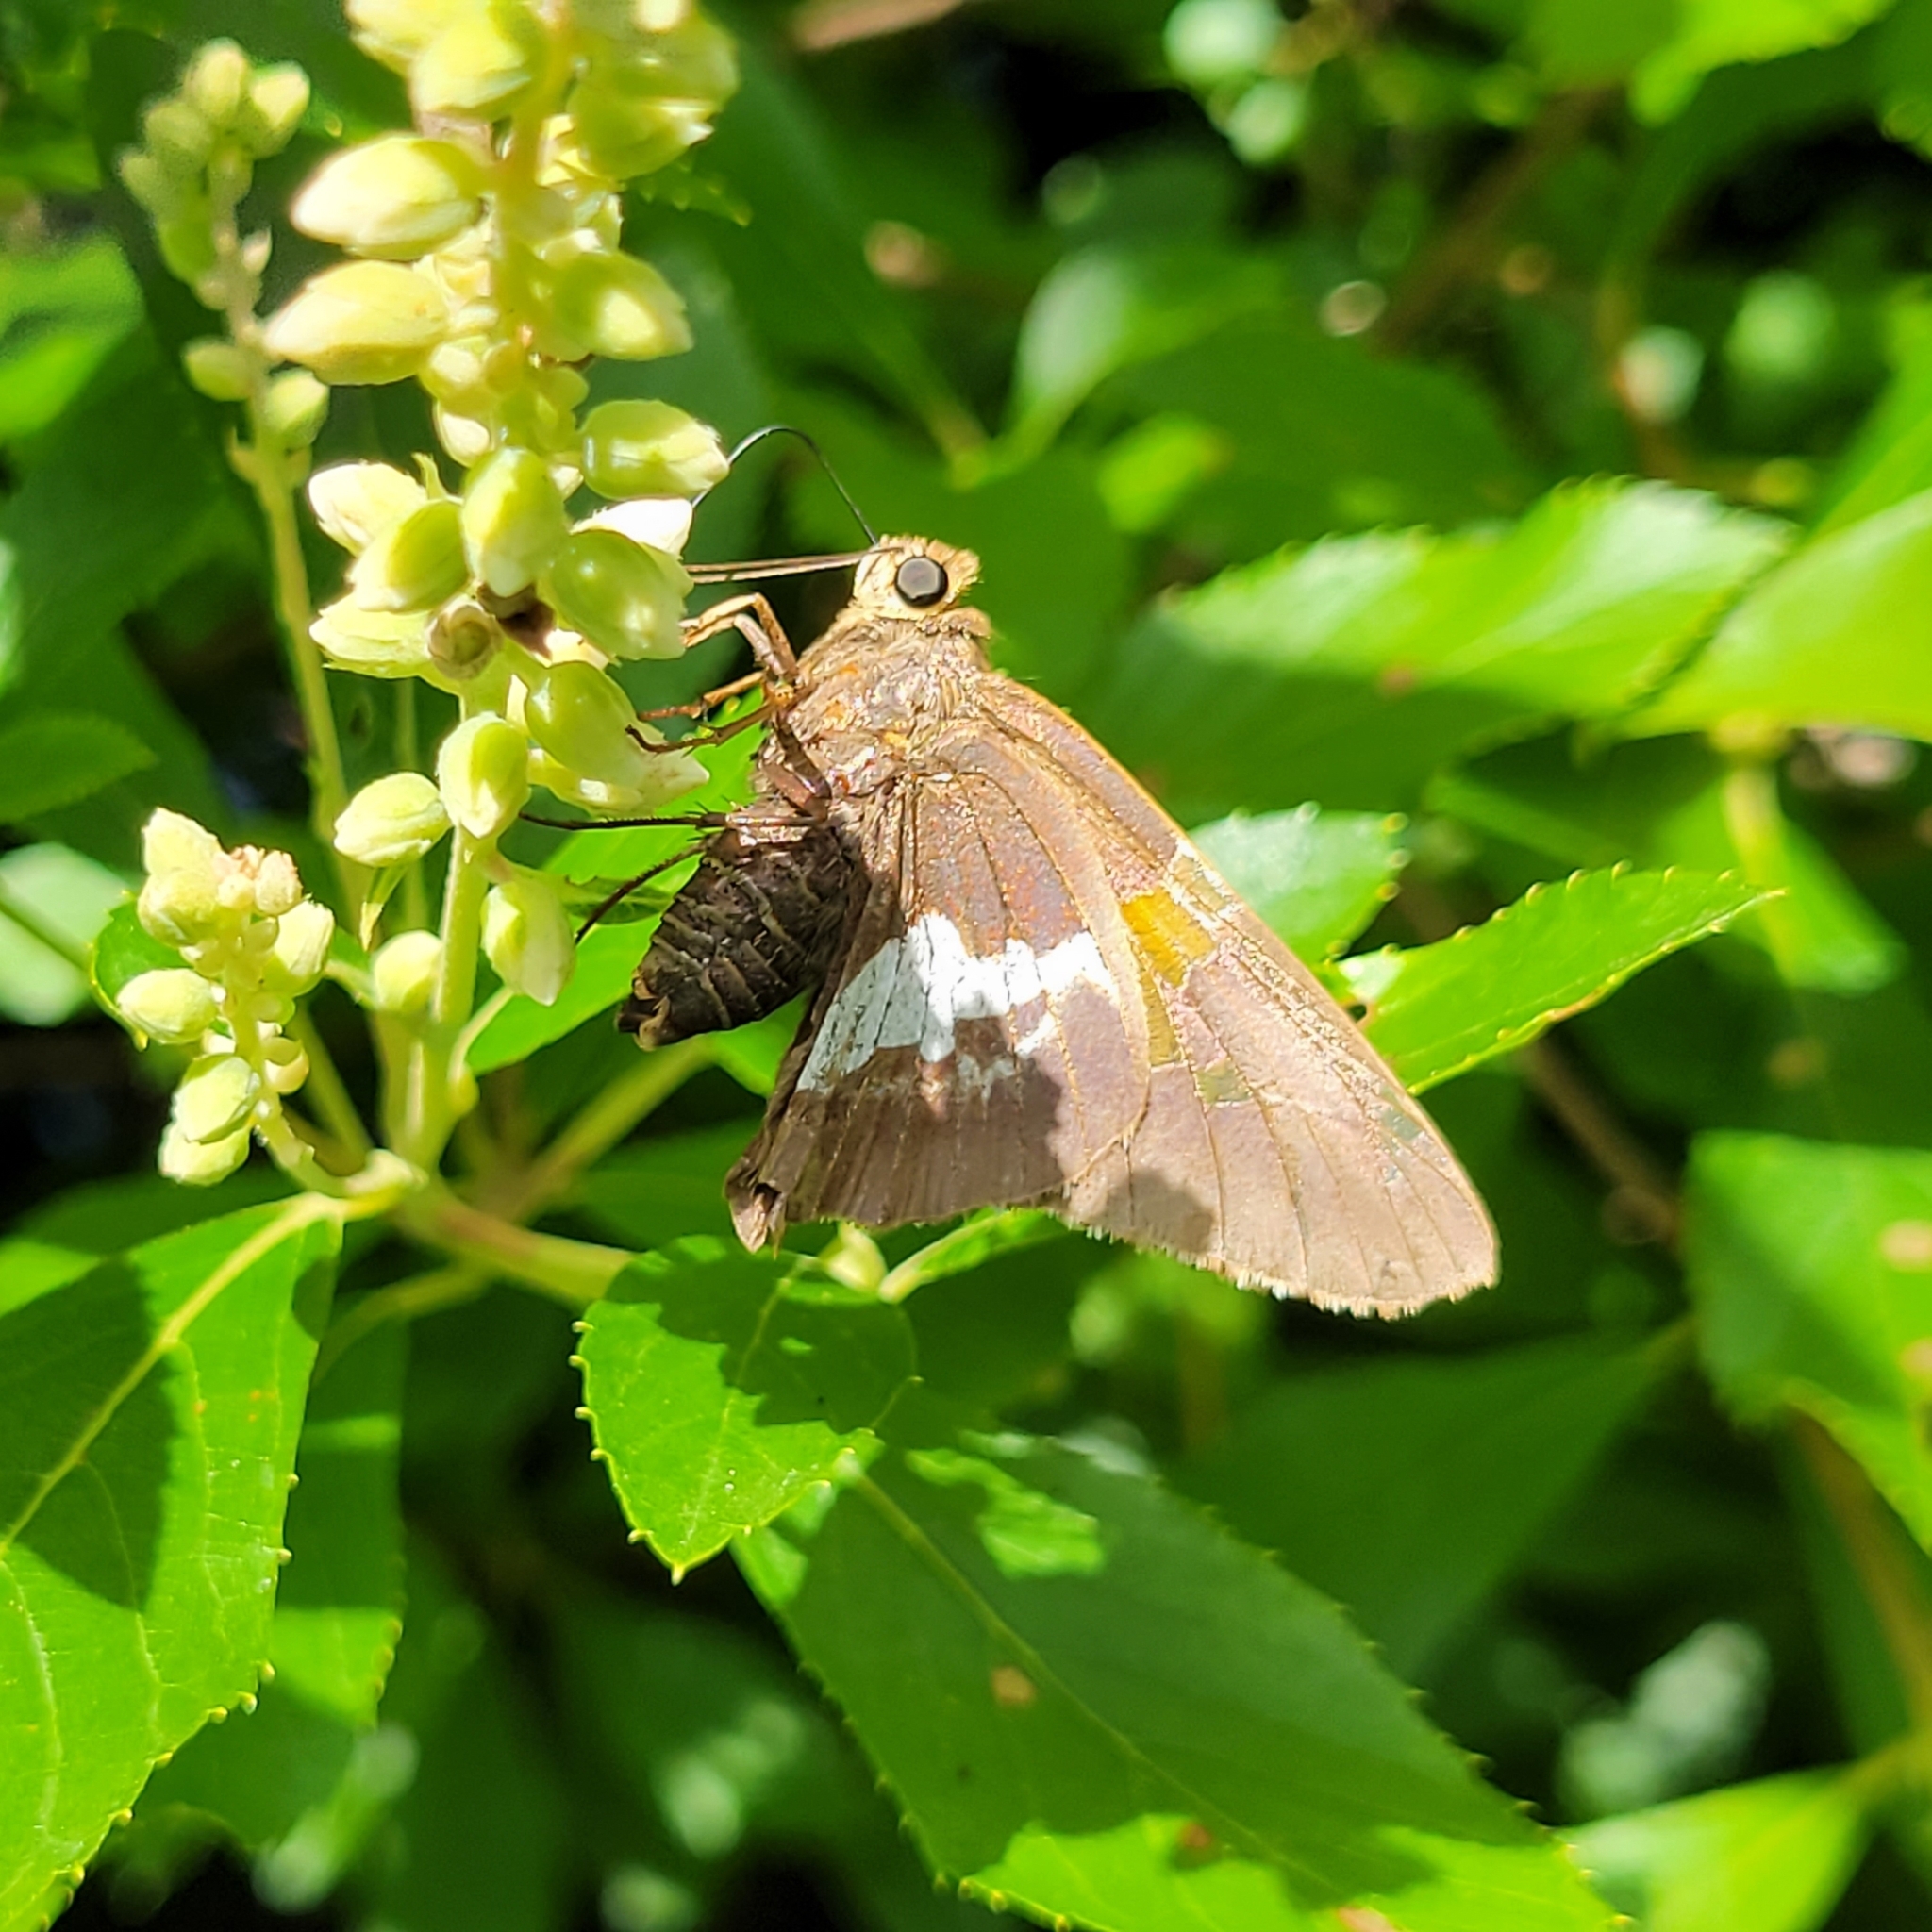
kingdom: Animalia
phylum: Arthropoda
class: Insecta
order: Lepidoptera
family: Hesperiidae
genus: Epargyreus
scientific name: Epargyreus clarus
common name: Silver-spotted skipper
